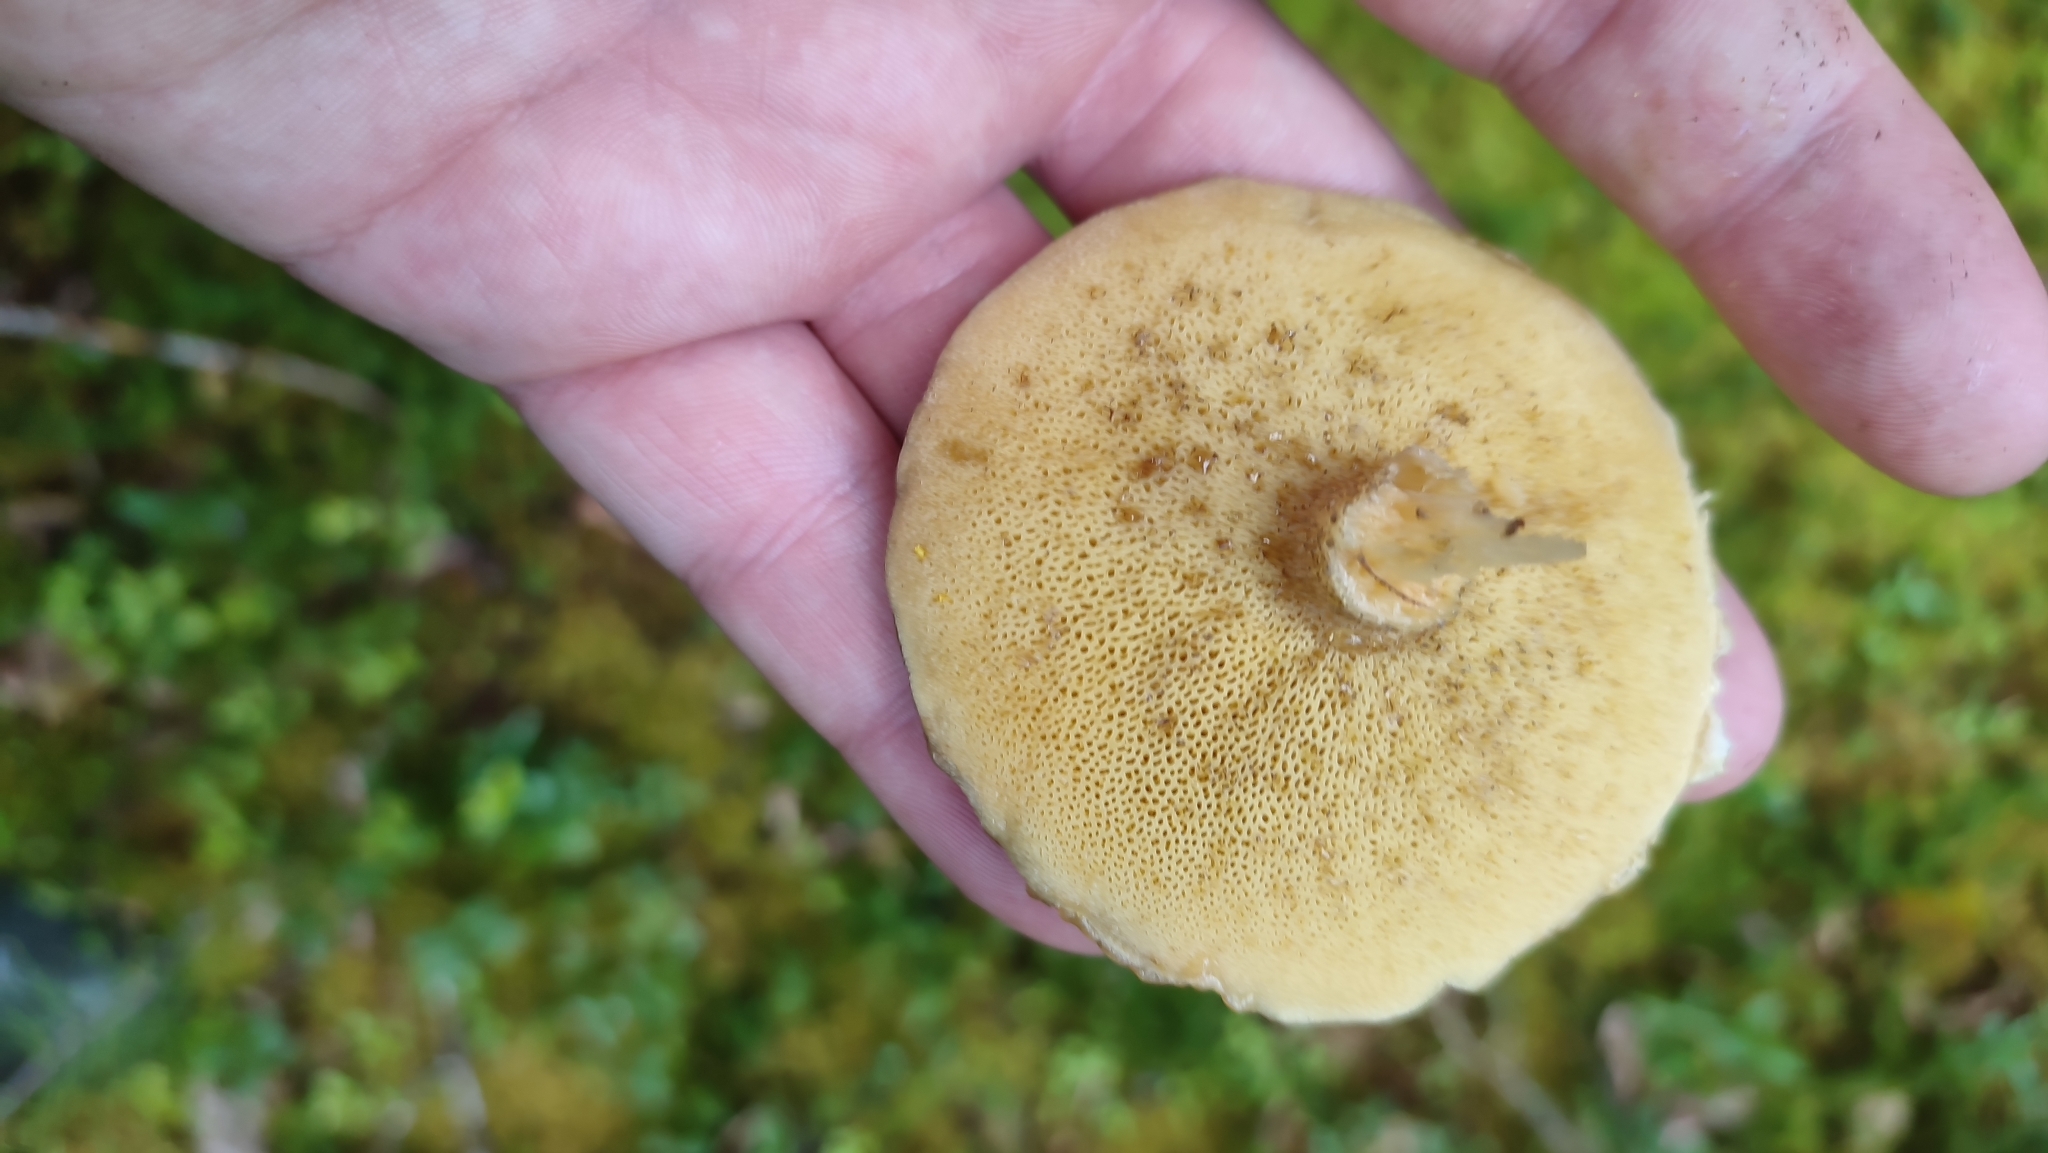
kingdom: Fungi
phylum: Basidiomycota
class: Agaricomycetes
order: Boletales
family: Suillaceae
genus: Suillus
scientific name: Suillus acidus
